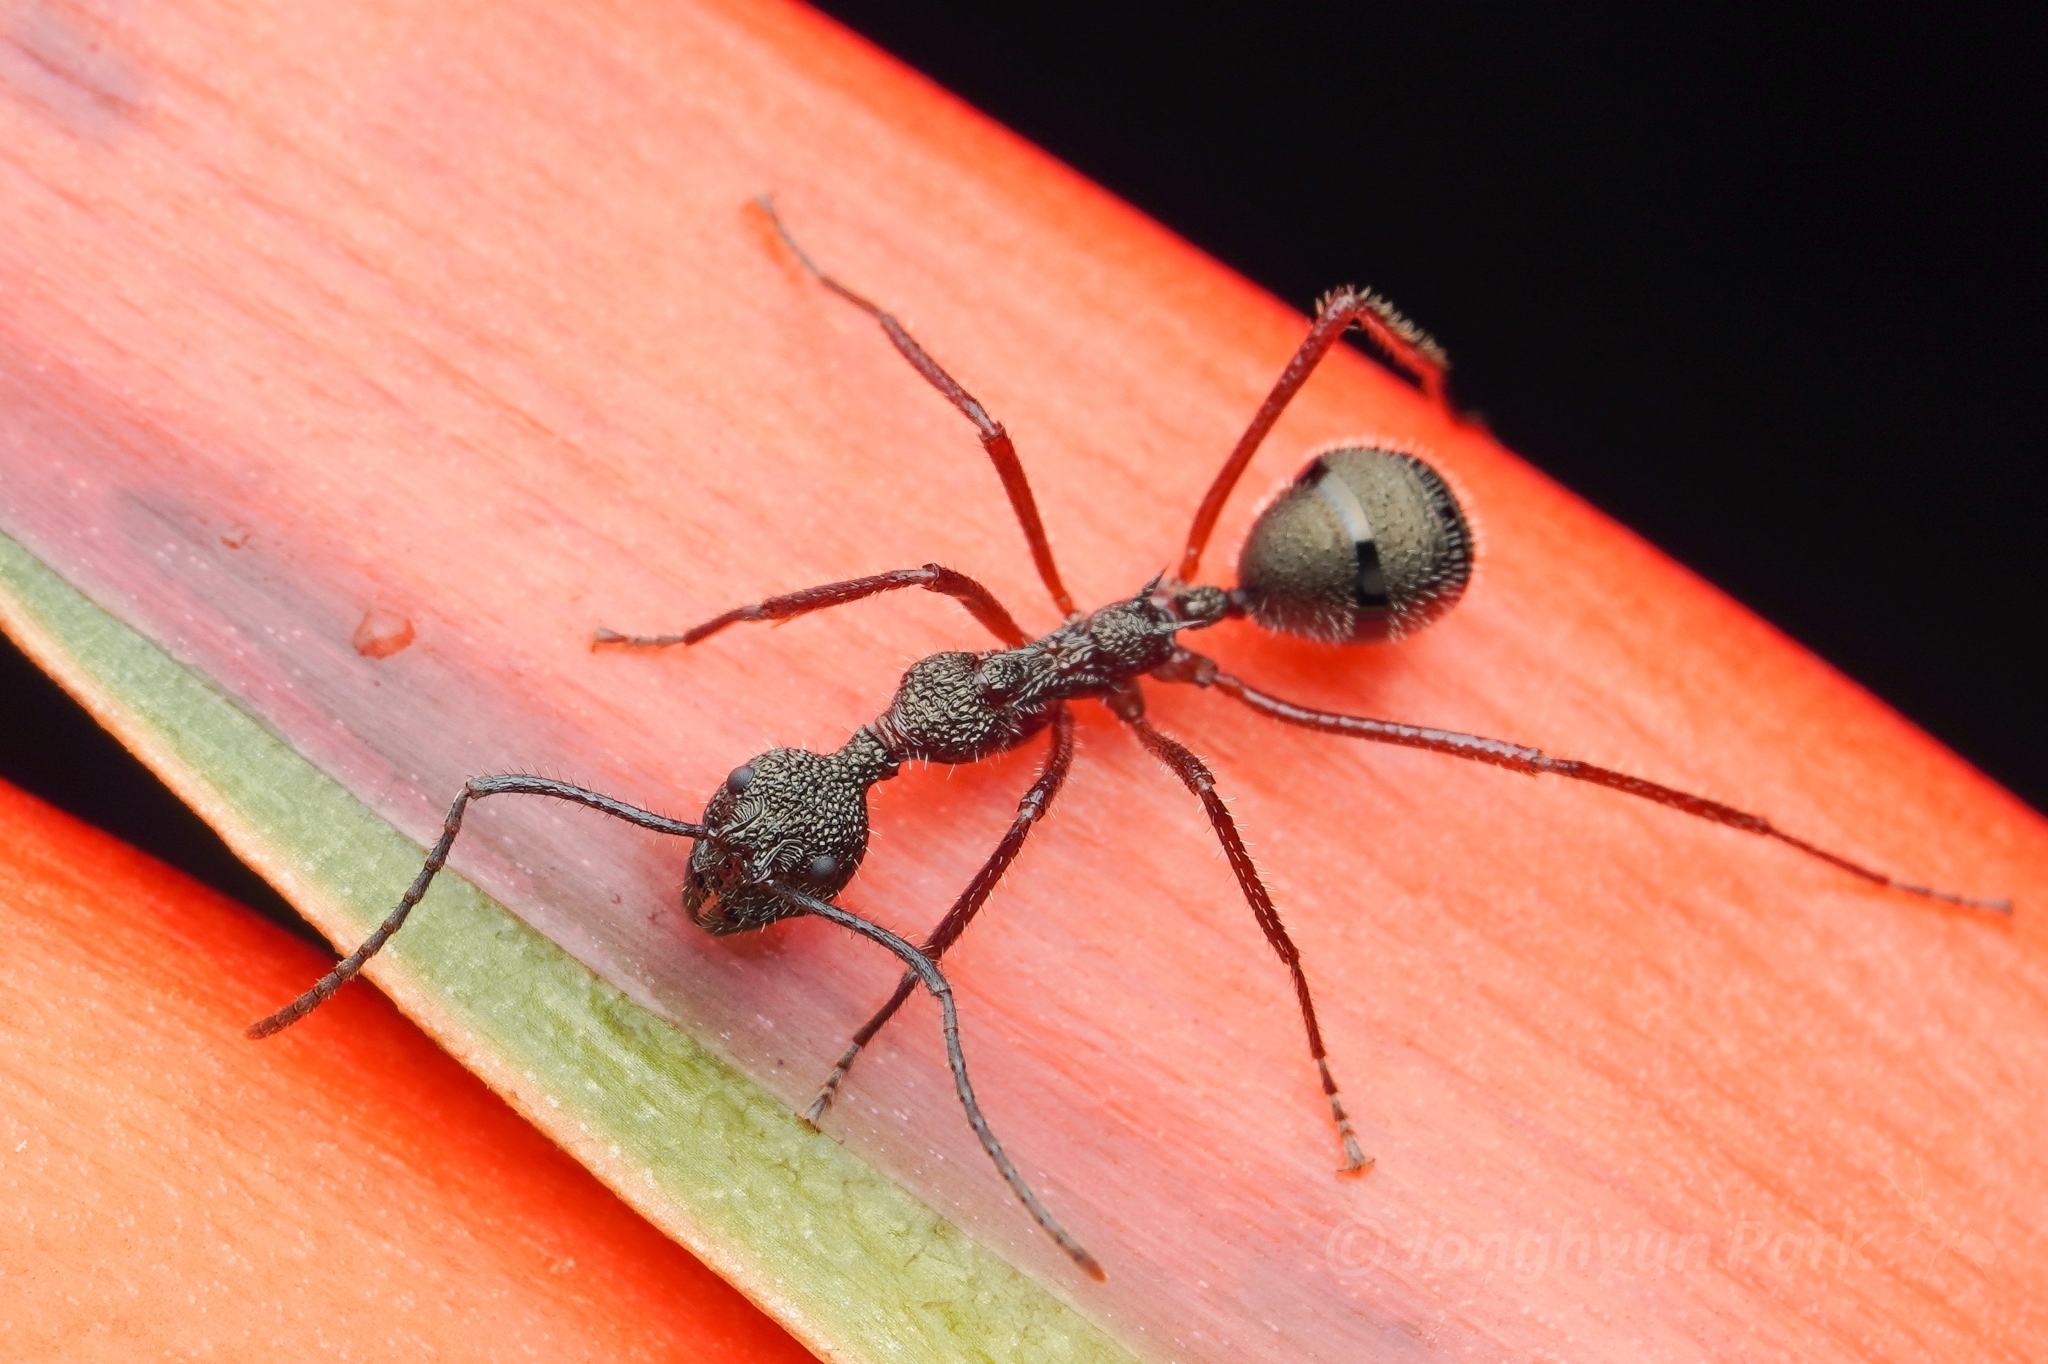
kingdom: Animalia
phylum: Arthropoda
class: Insecta
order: Hymenoptera
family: Formicidae
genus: Dolichoderus
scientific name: Dolichoderus attelaboides
